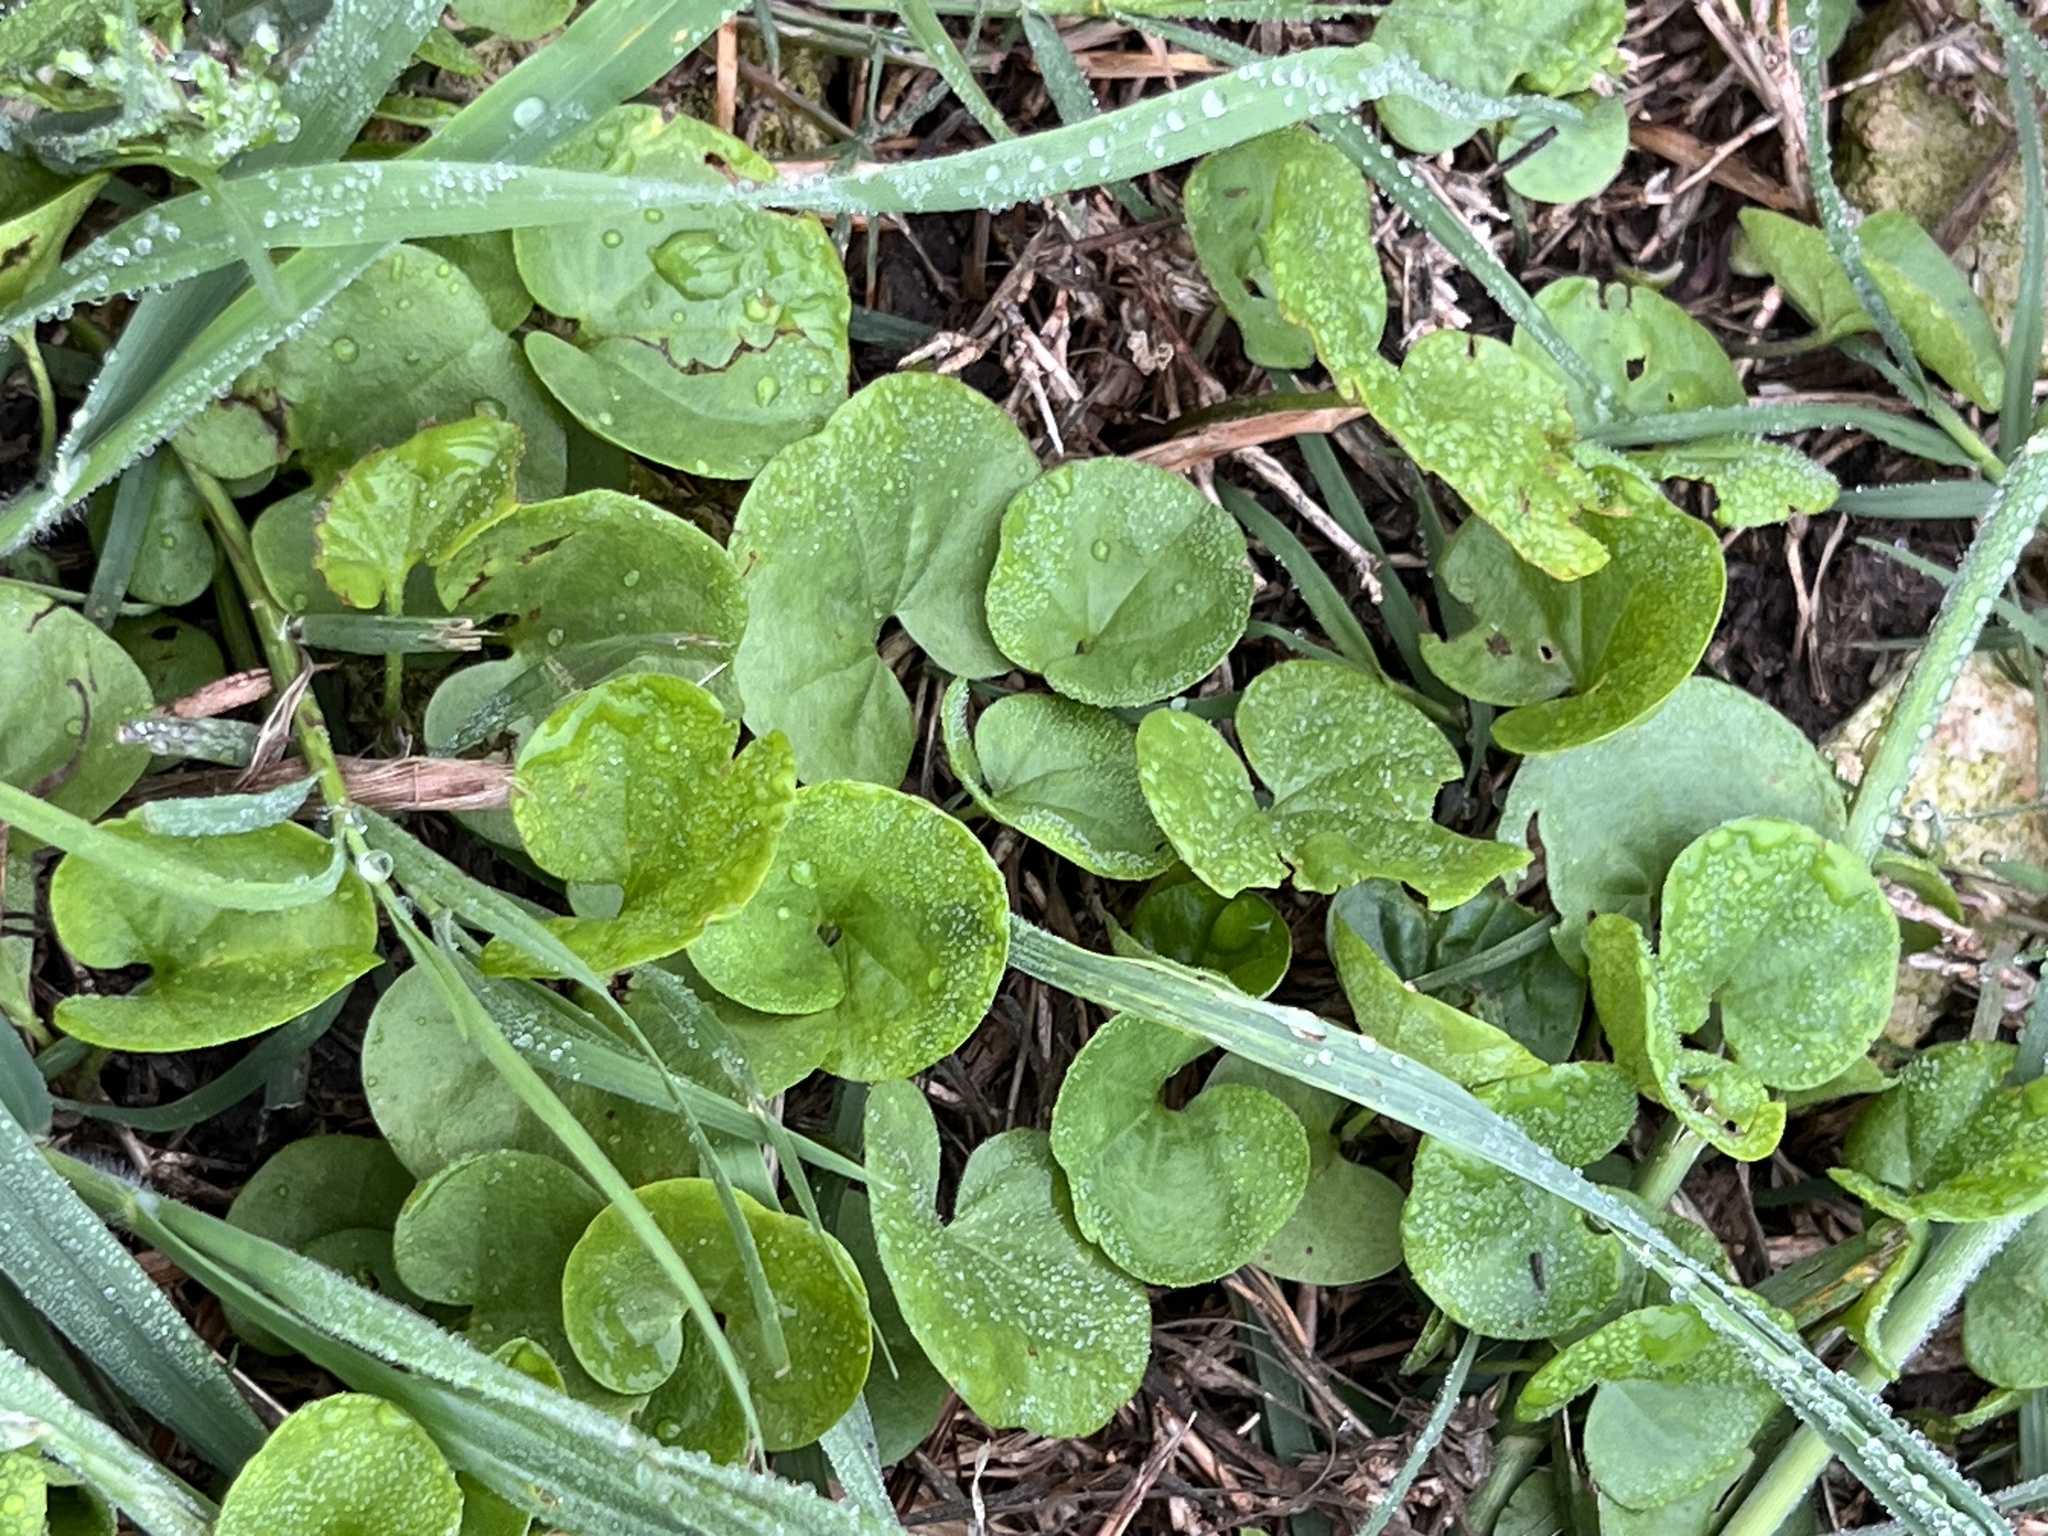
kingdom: Plantae
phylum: Tracheophyta
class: Magnoliopsida
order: Solanales
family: Convolvulaceae
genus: Dichondra
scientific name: Dichondra carolinensis
